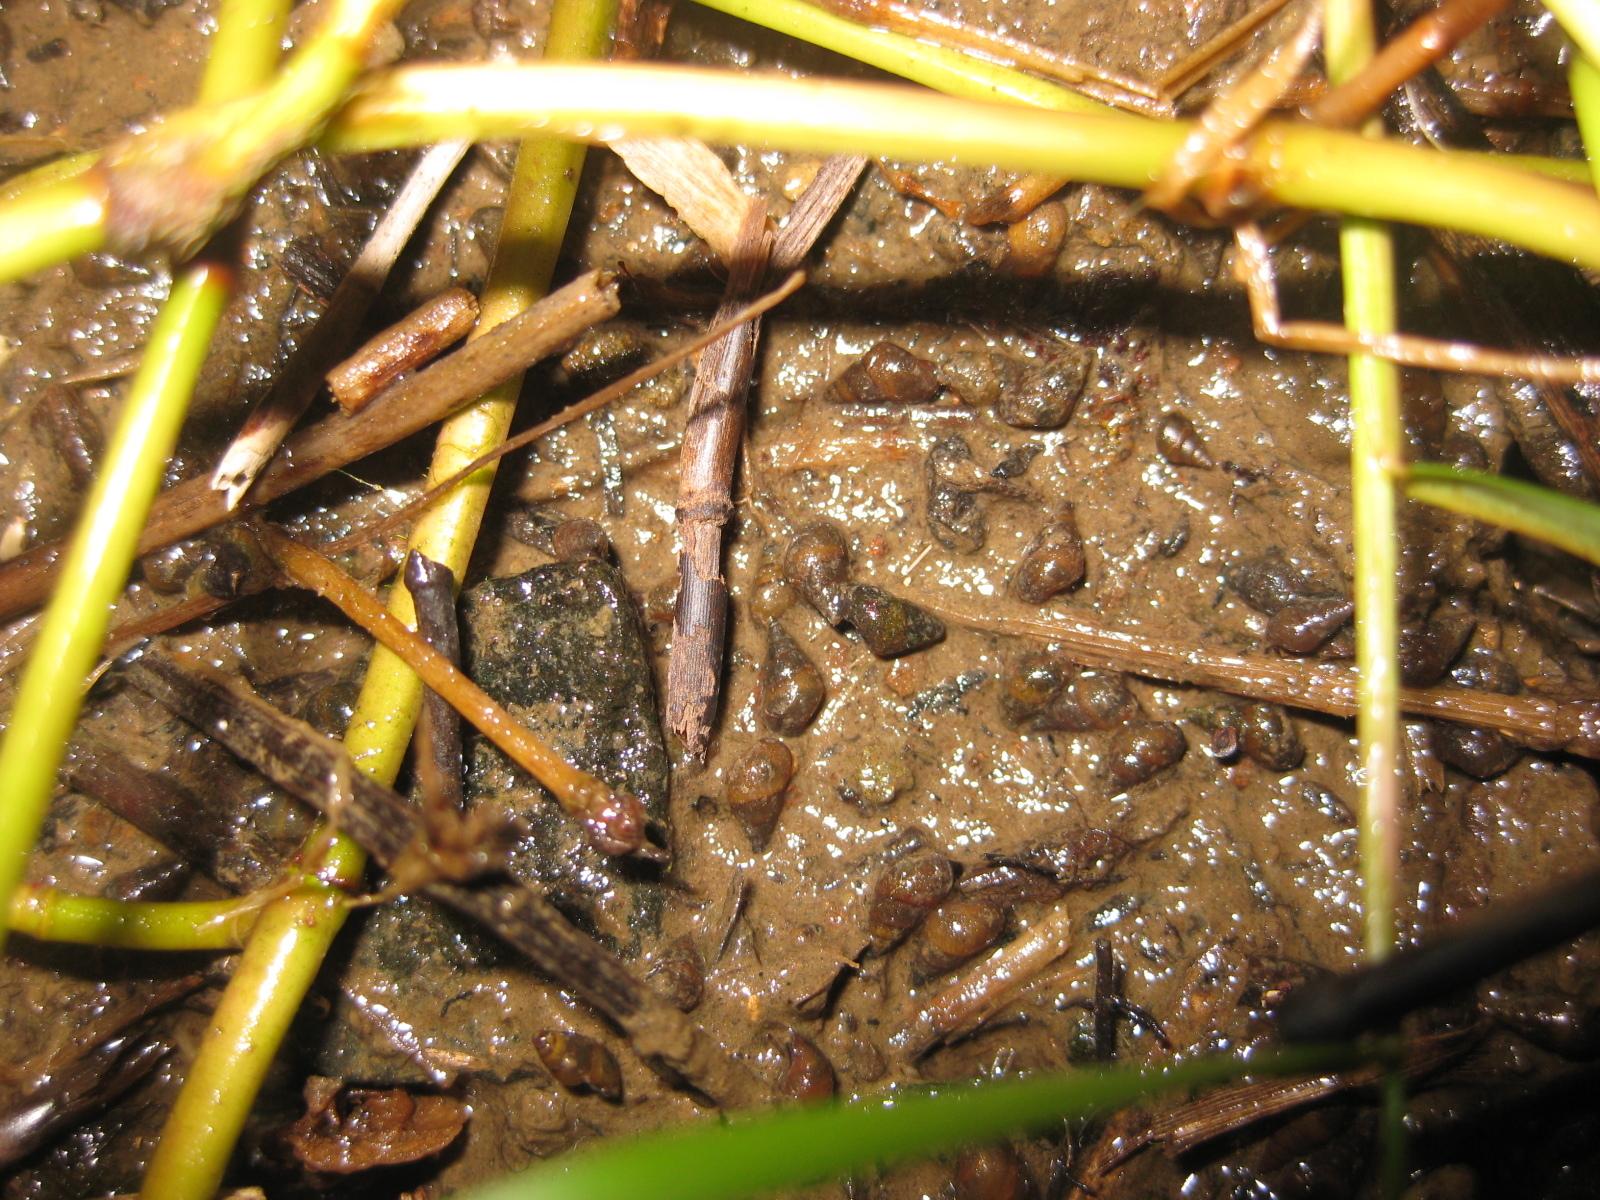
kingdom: Animalia
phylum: Mollusca
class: Gastropoda
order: Littorinimorpha
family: Tateidae
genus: Potamopyrgus
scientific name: Potamopyrgus estuarinus
